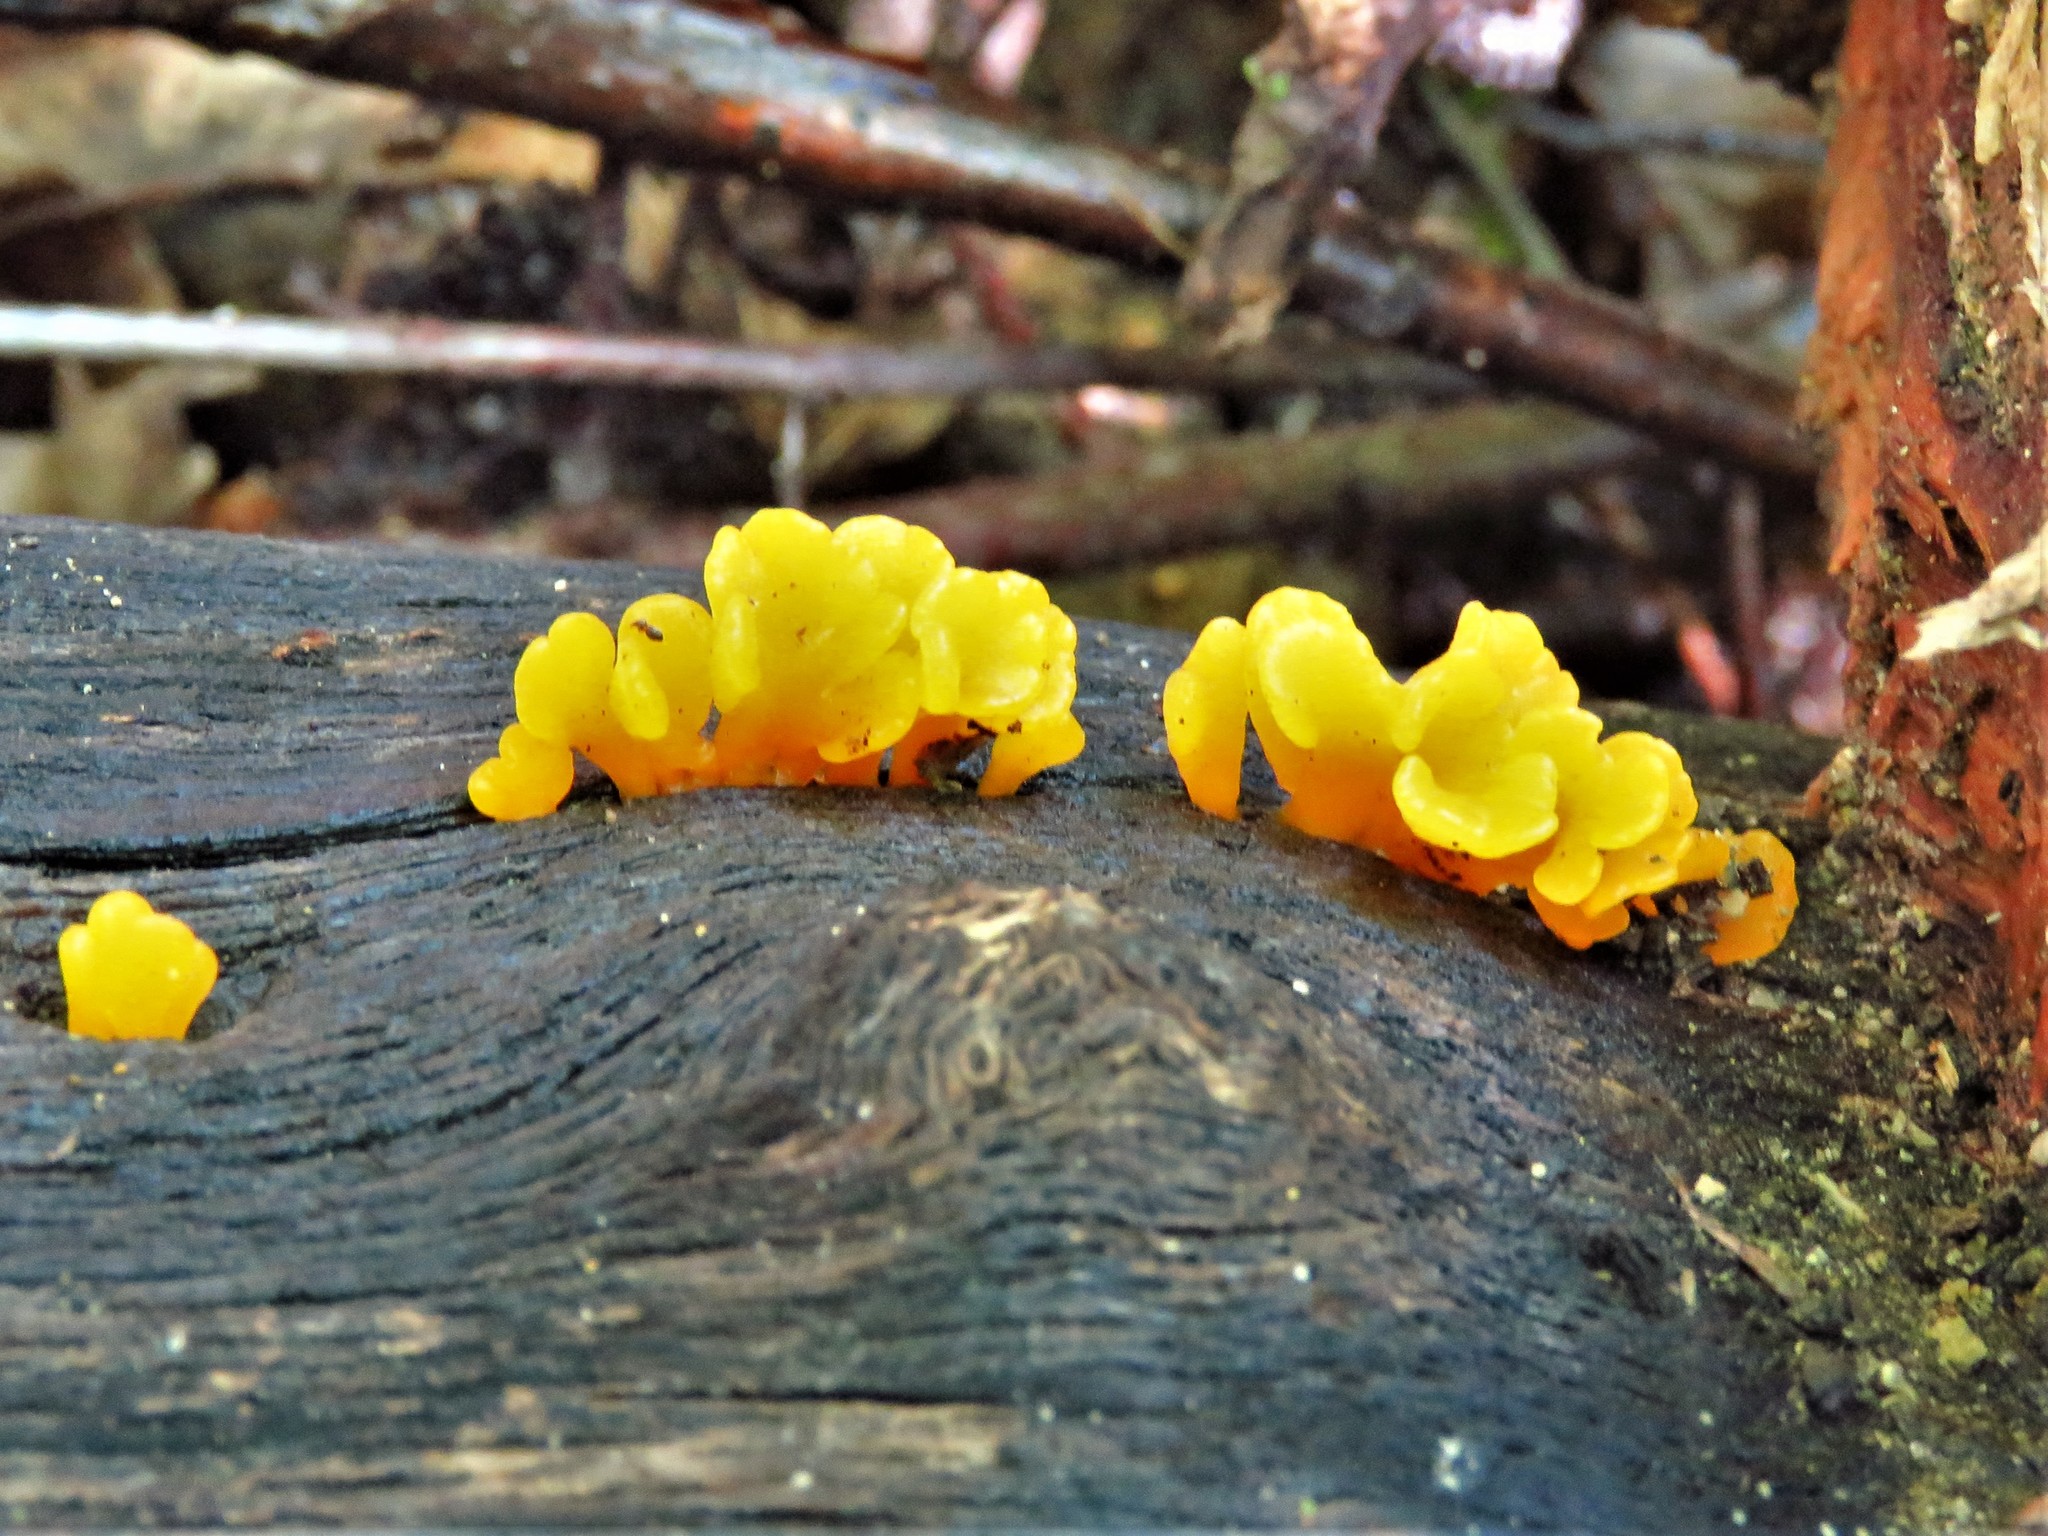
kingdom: Fungi
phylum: Basidiomycota
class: Dacrymycetes
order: Dacrymycetales
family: Dacrymycetaceae
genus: Dacrymyces
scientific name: Dacrymyces spathularius
